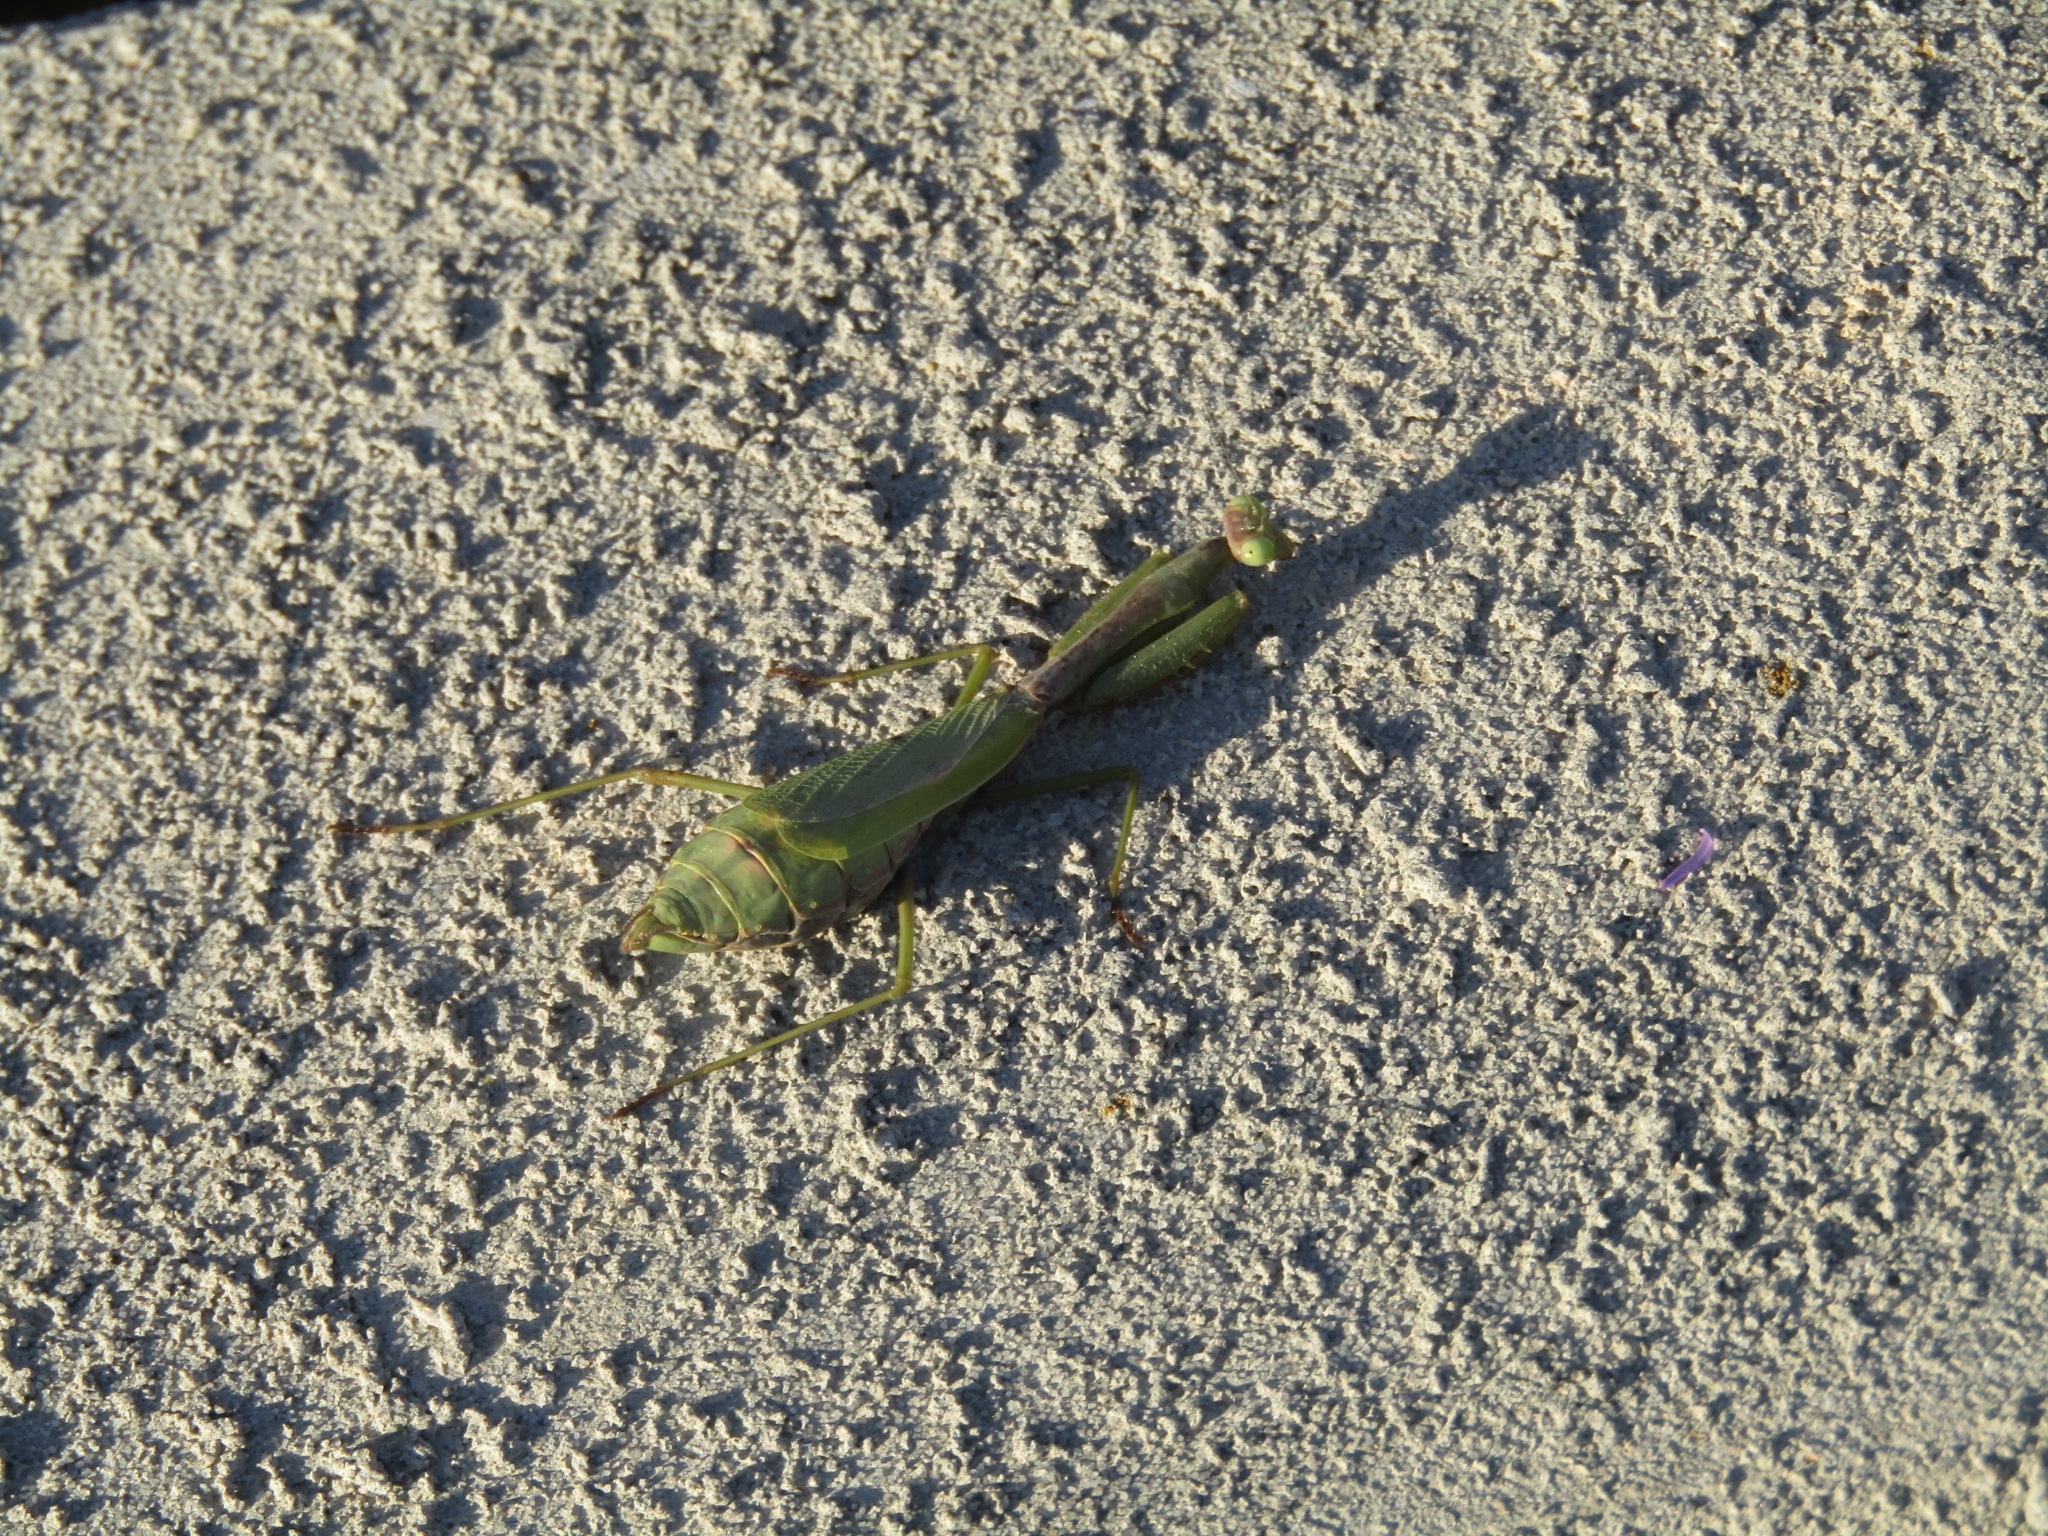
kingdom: Animalia
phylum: Arthropoda
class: Insecta
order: Mantodea
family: Mantidae
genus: Stagmomantis
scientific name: Stagmomantis carolina
